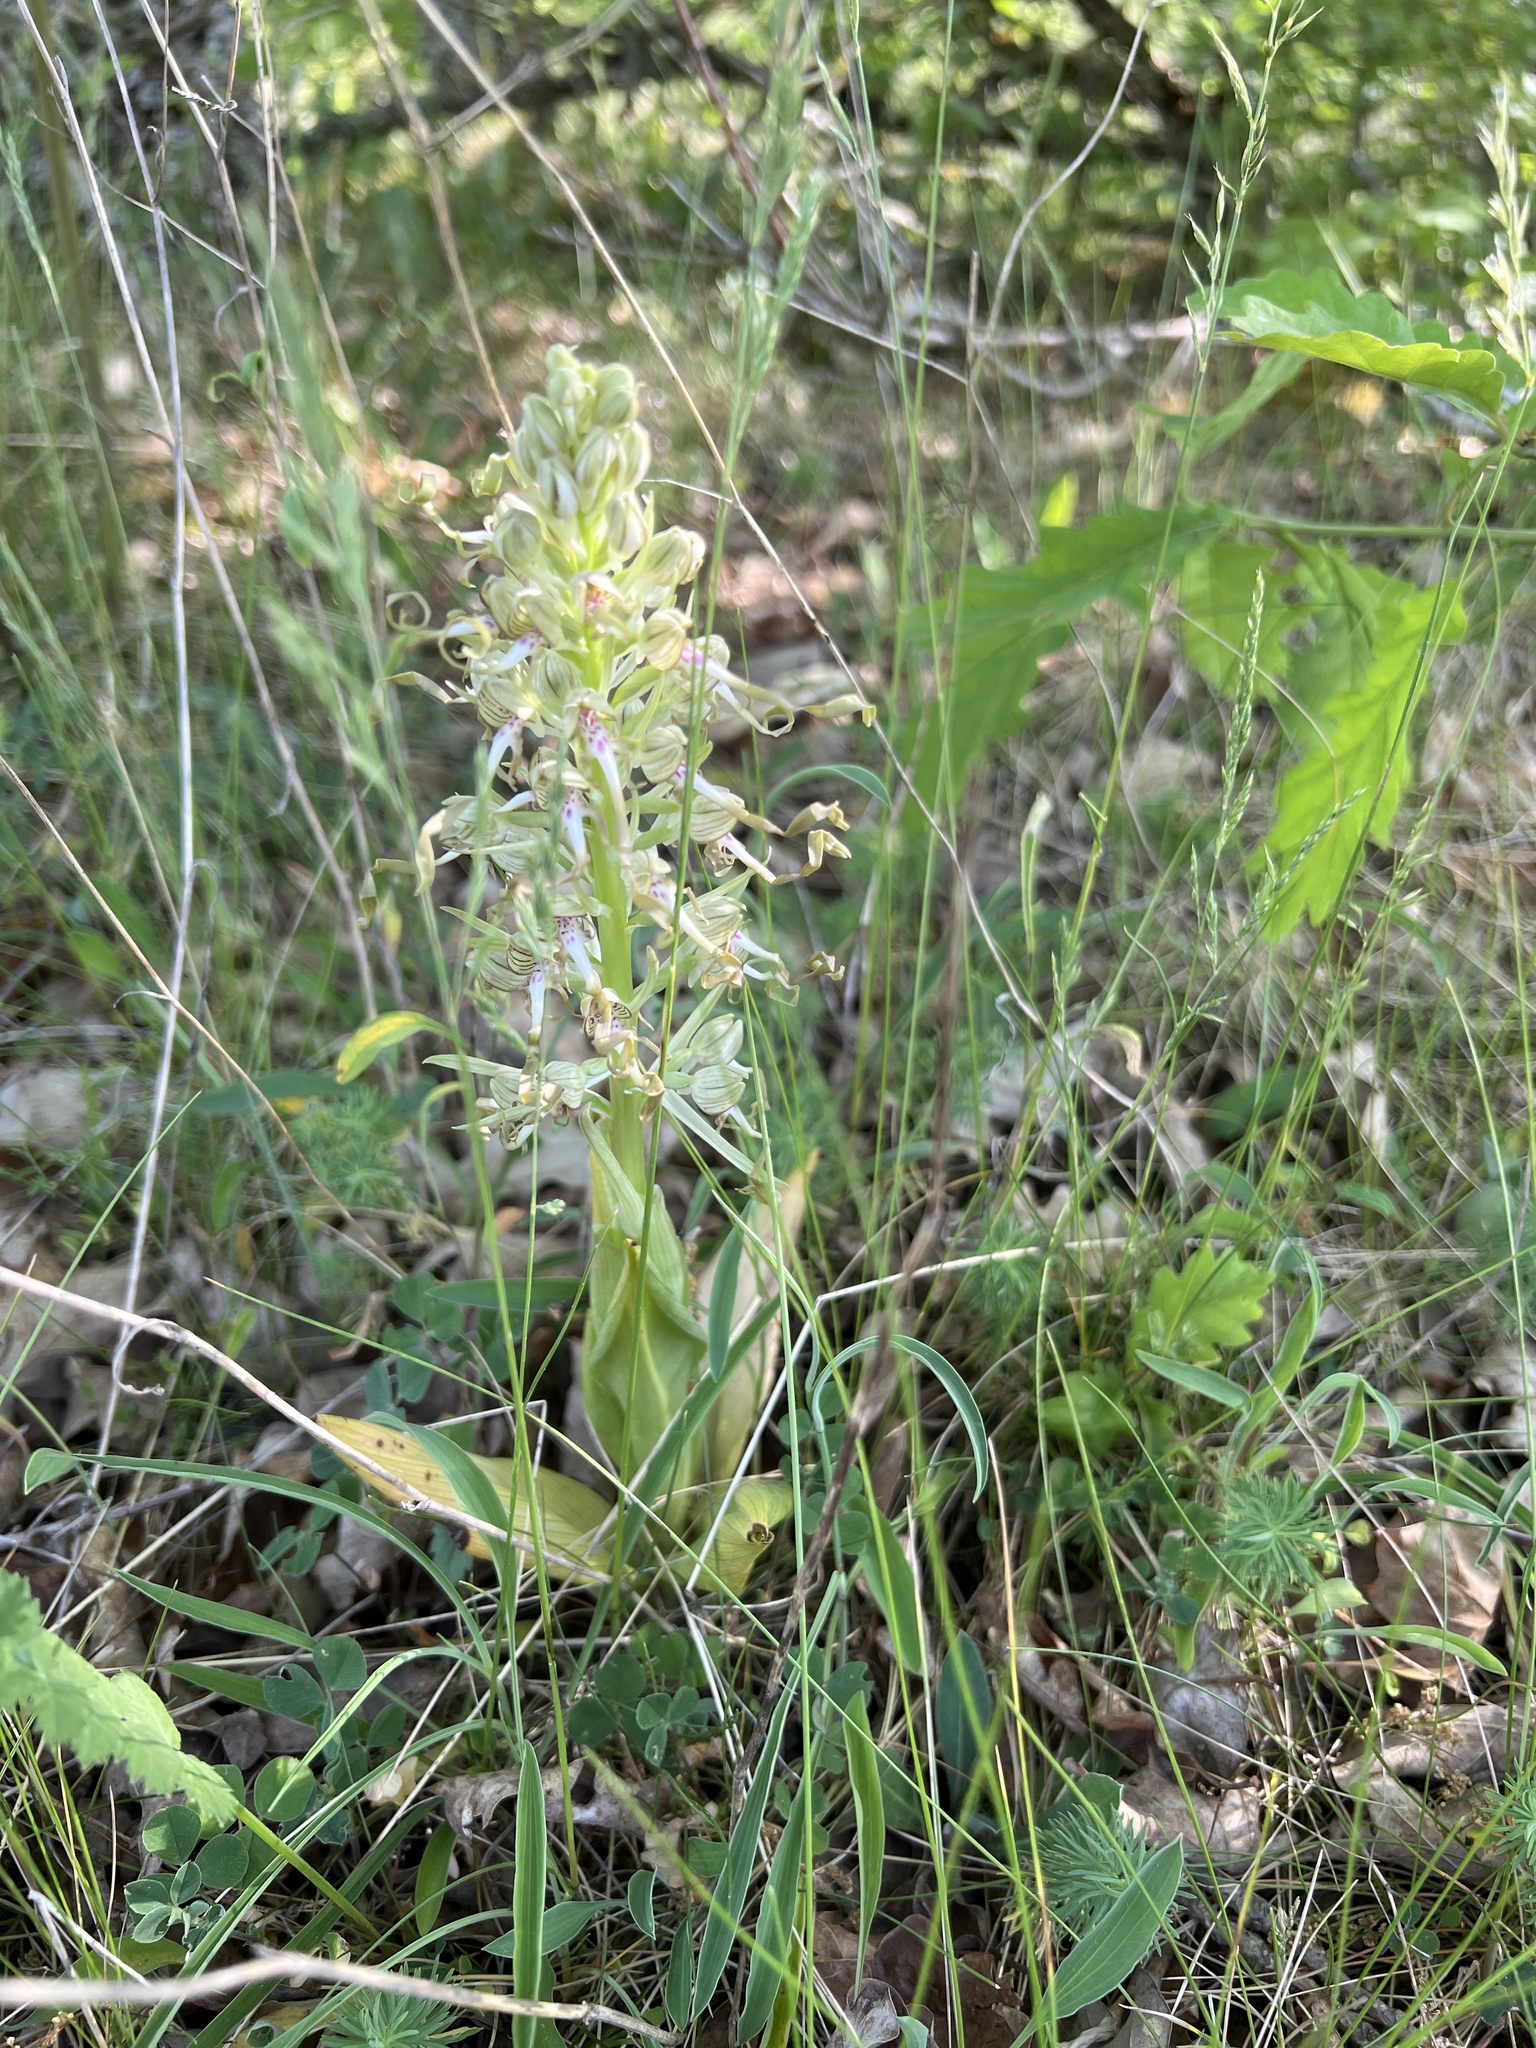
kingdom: Plantae
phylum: Tracheophyta
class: Liliopsida
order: Asparagales
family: Orchidaceae
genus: Himantoglossum
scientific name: Himantoglossum hircinum
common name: Lizard orchid
